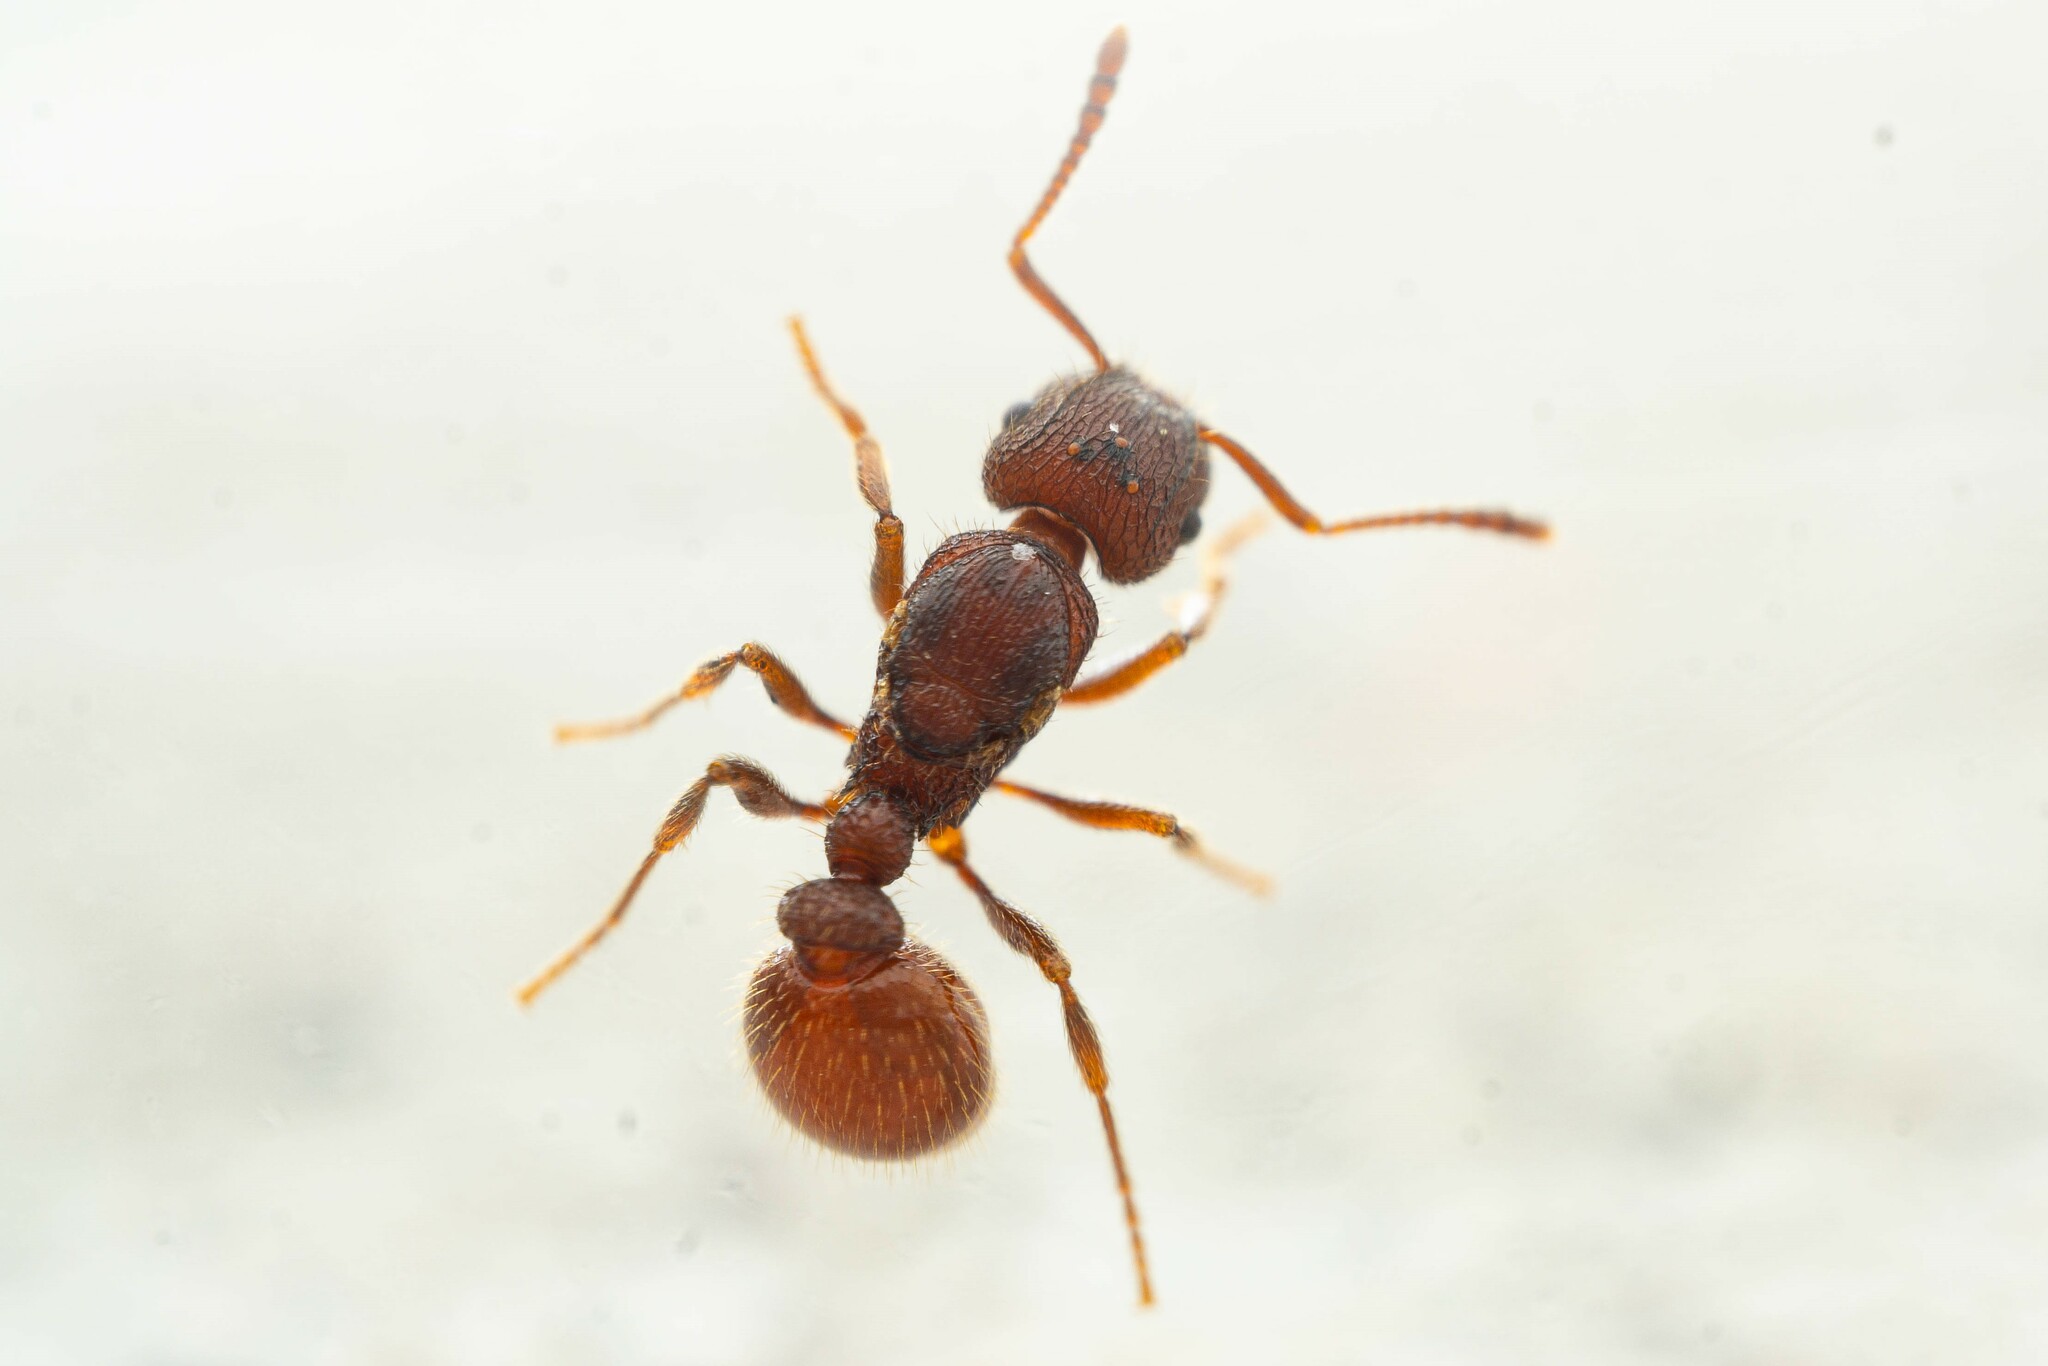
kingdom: Animalia
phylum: Arthropoda
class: Insecta
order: Hymenoptera
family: Formicidae
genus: Tetramorium
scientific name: Tetramorium spinosum
